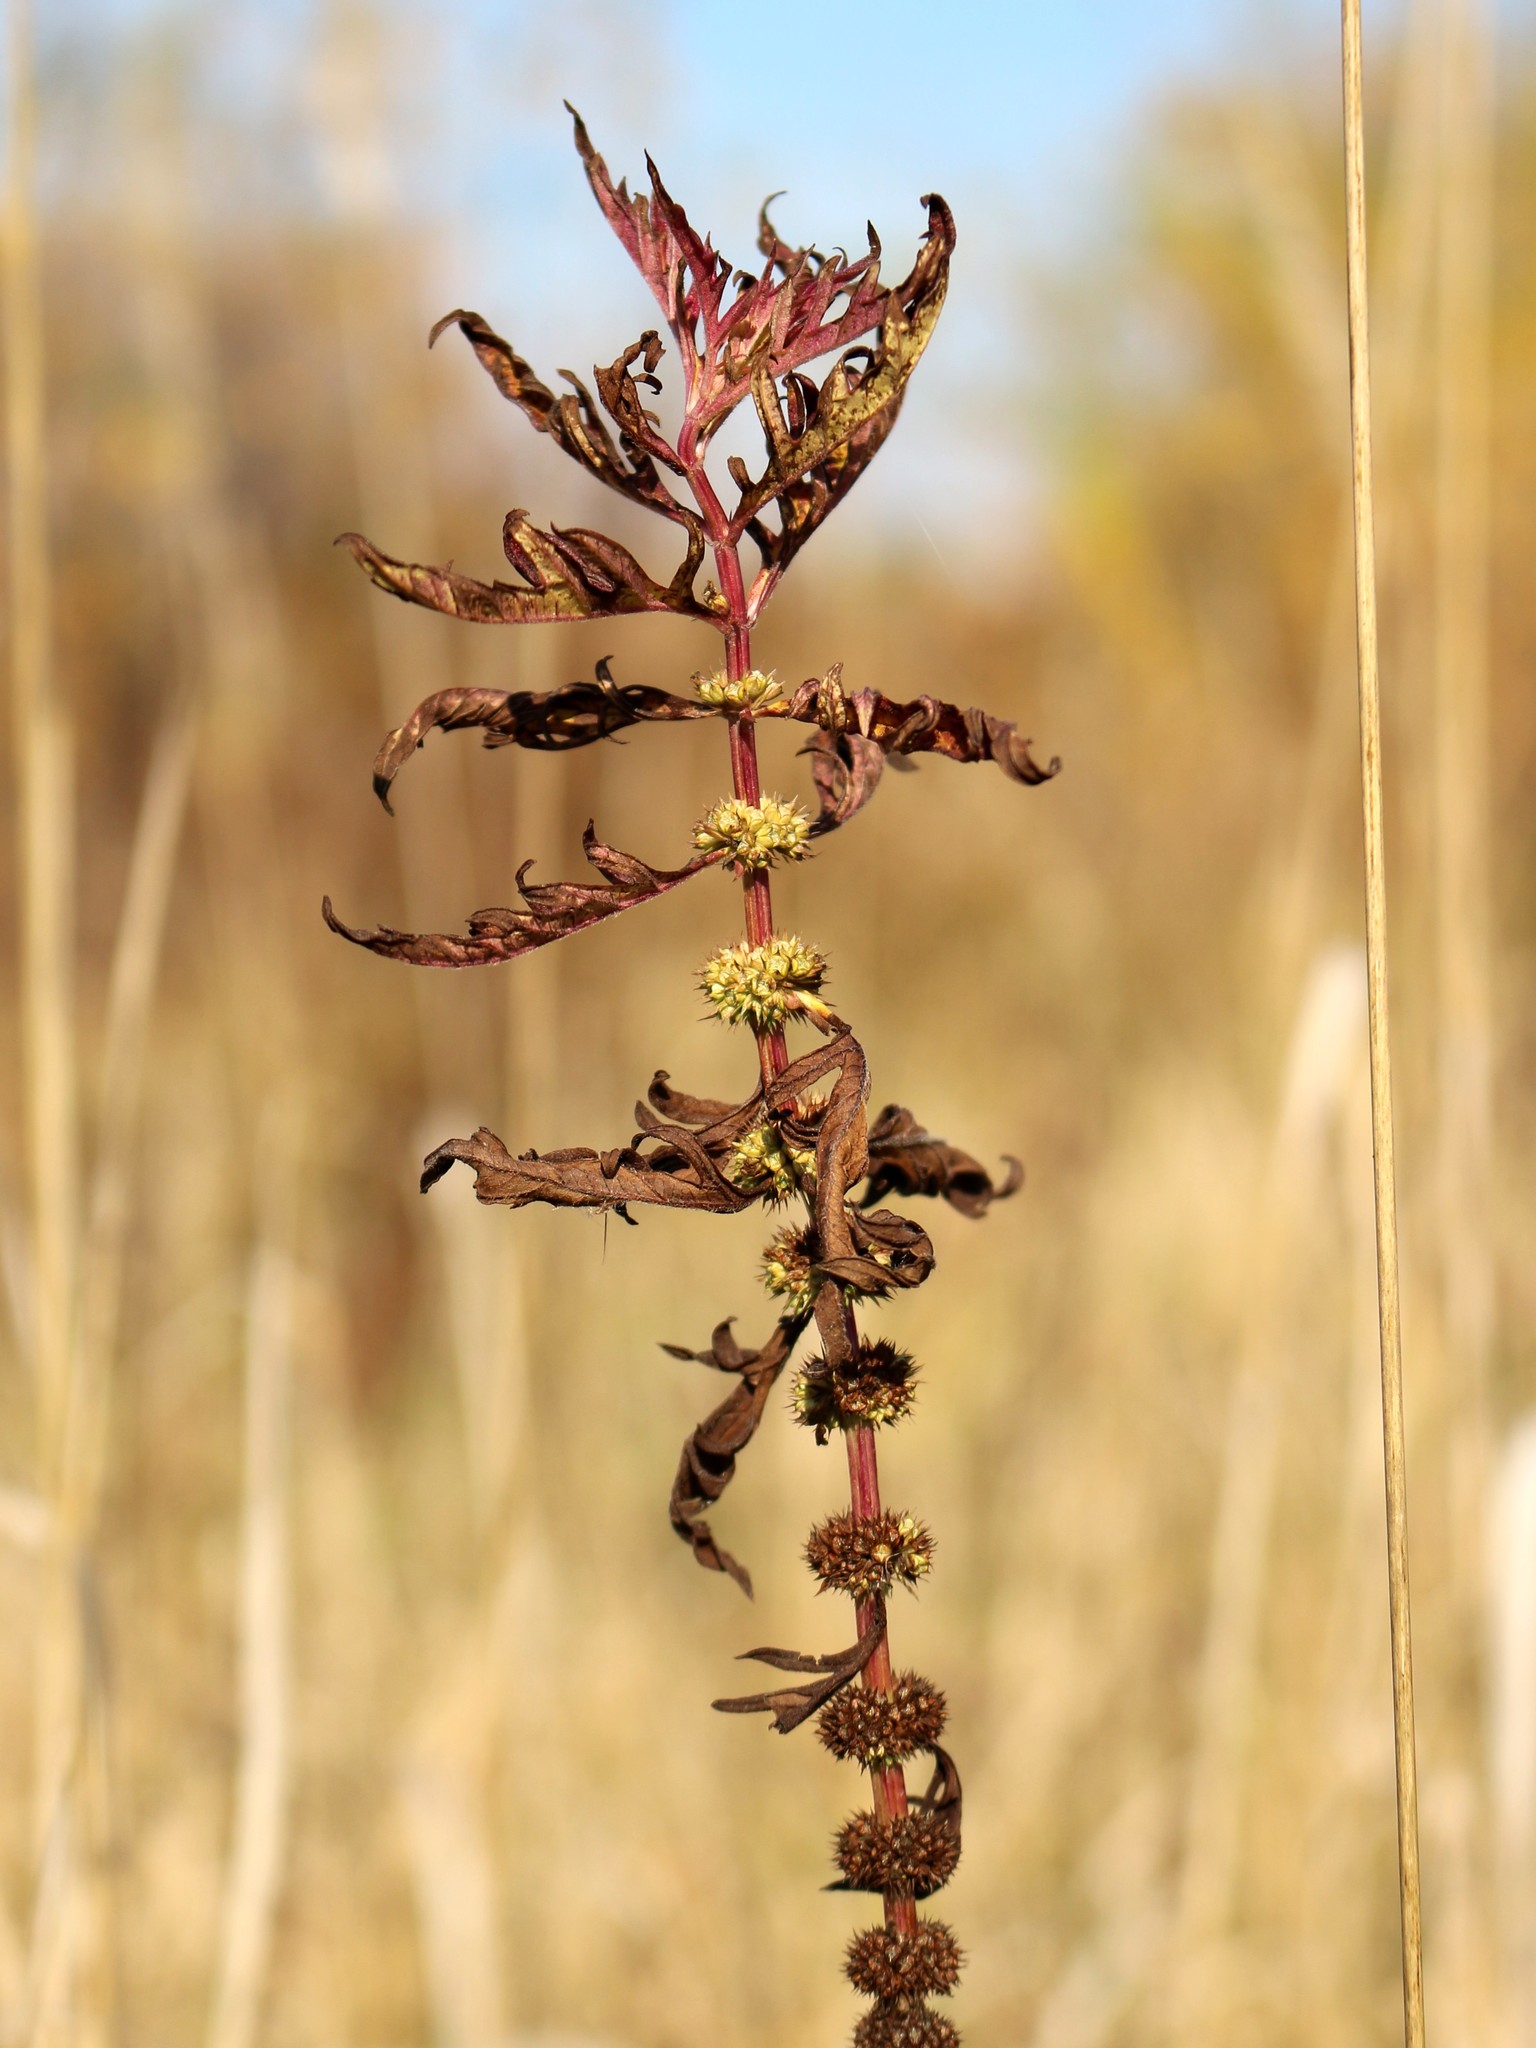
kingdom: Plantae
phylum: Tracheophyta
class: Magnoliopsida
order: Lamiales
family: Lamiaceae
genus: Lycopus
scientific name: Lycopus exaltatus
